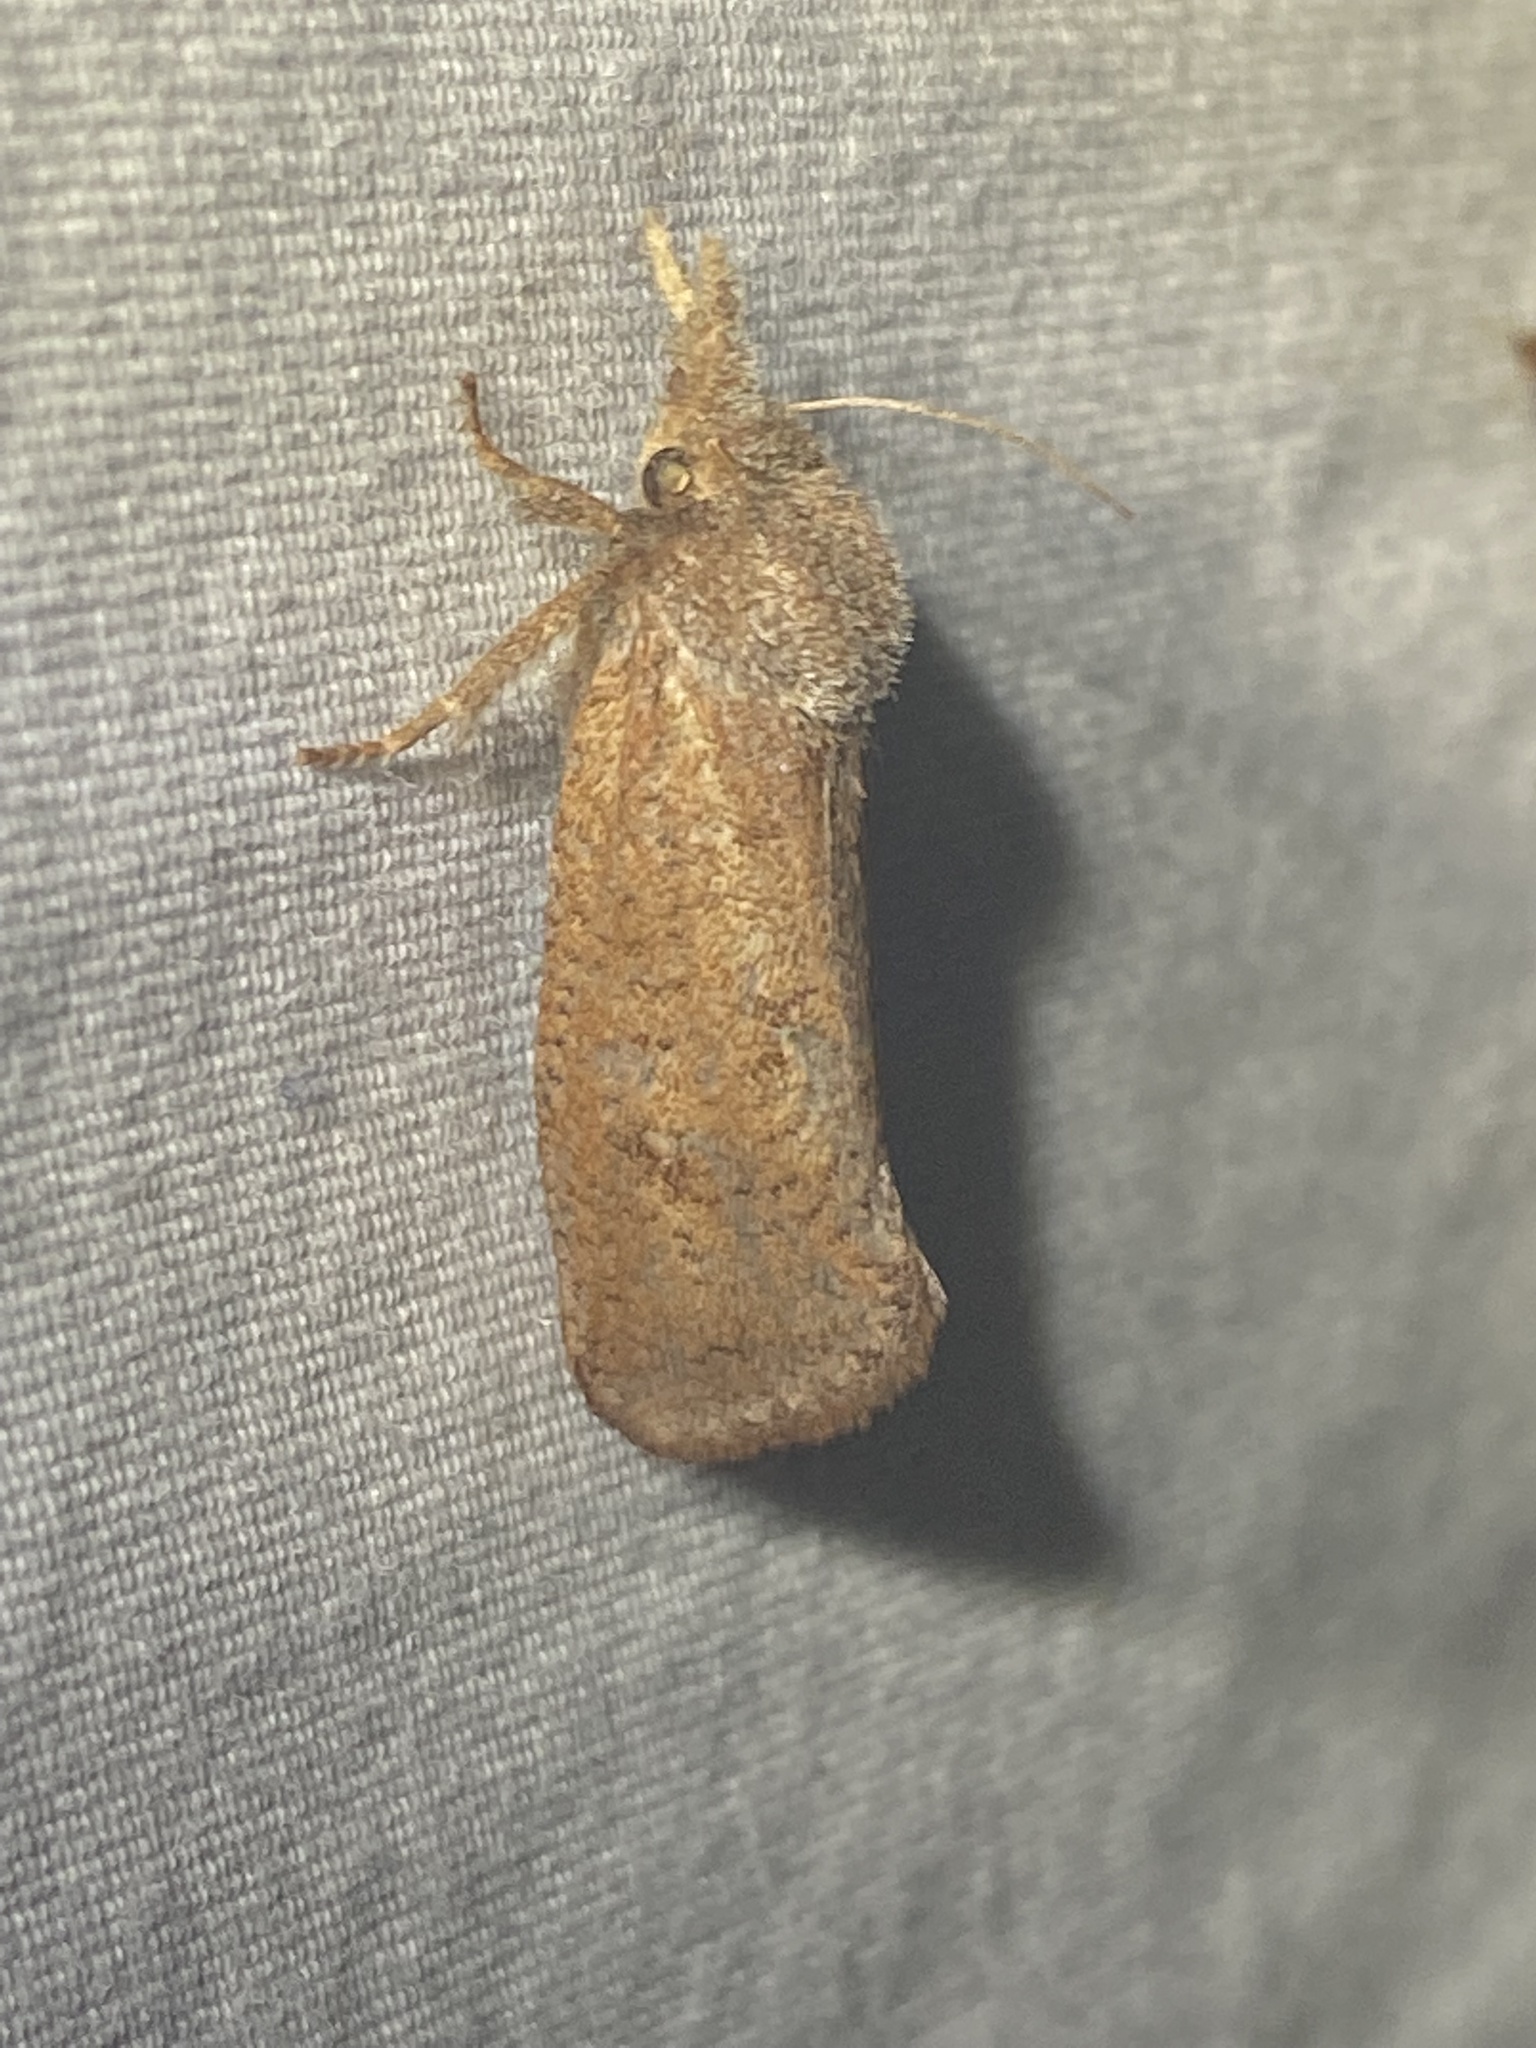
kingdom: Animalia
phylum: Arthropoda
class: Insecta
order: Lepidoptera
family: Tineidae
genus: Acrolophus
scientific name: Acrolophus plumifrontella
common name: Eastern grass tubeworm moth
